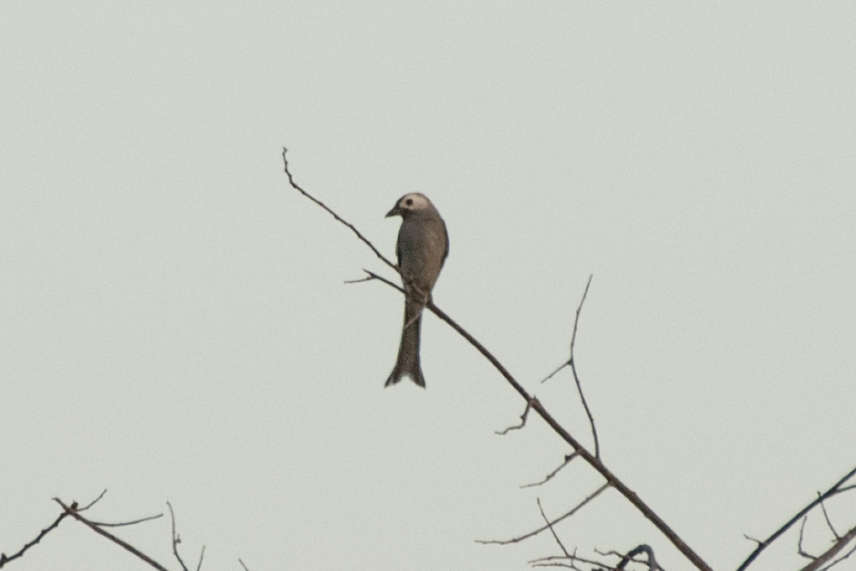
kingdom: Animalia
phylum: Chordata
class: Aves
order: Passeriformes
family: Dicruridae
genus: Dicrurus
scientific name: Dicrurus leucophaeus
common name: Ashy drongo
